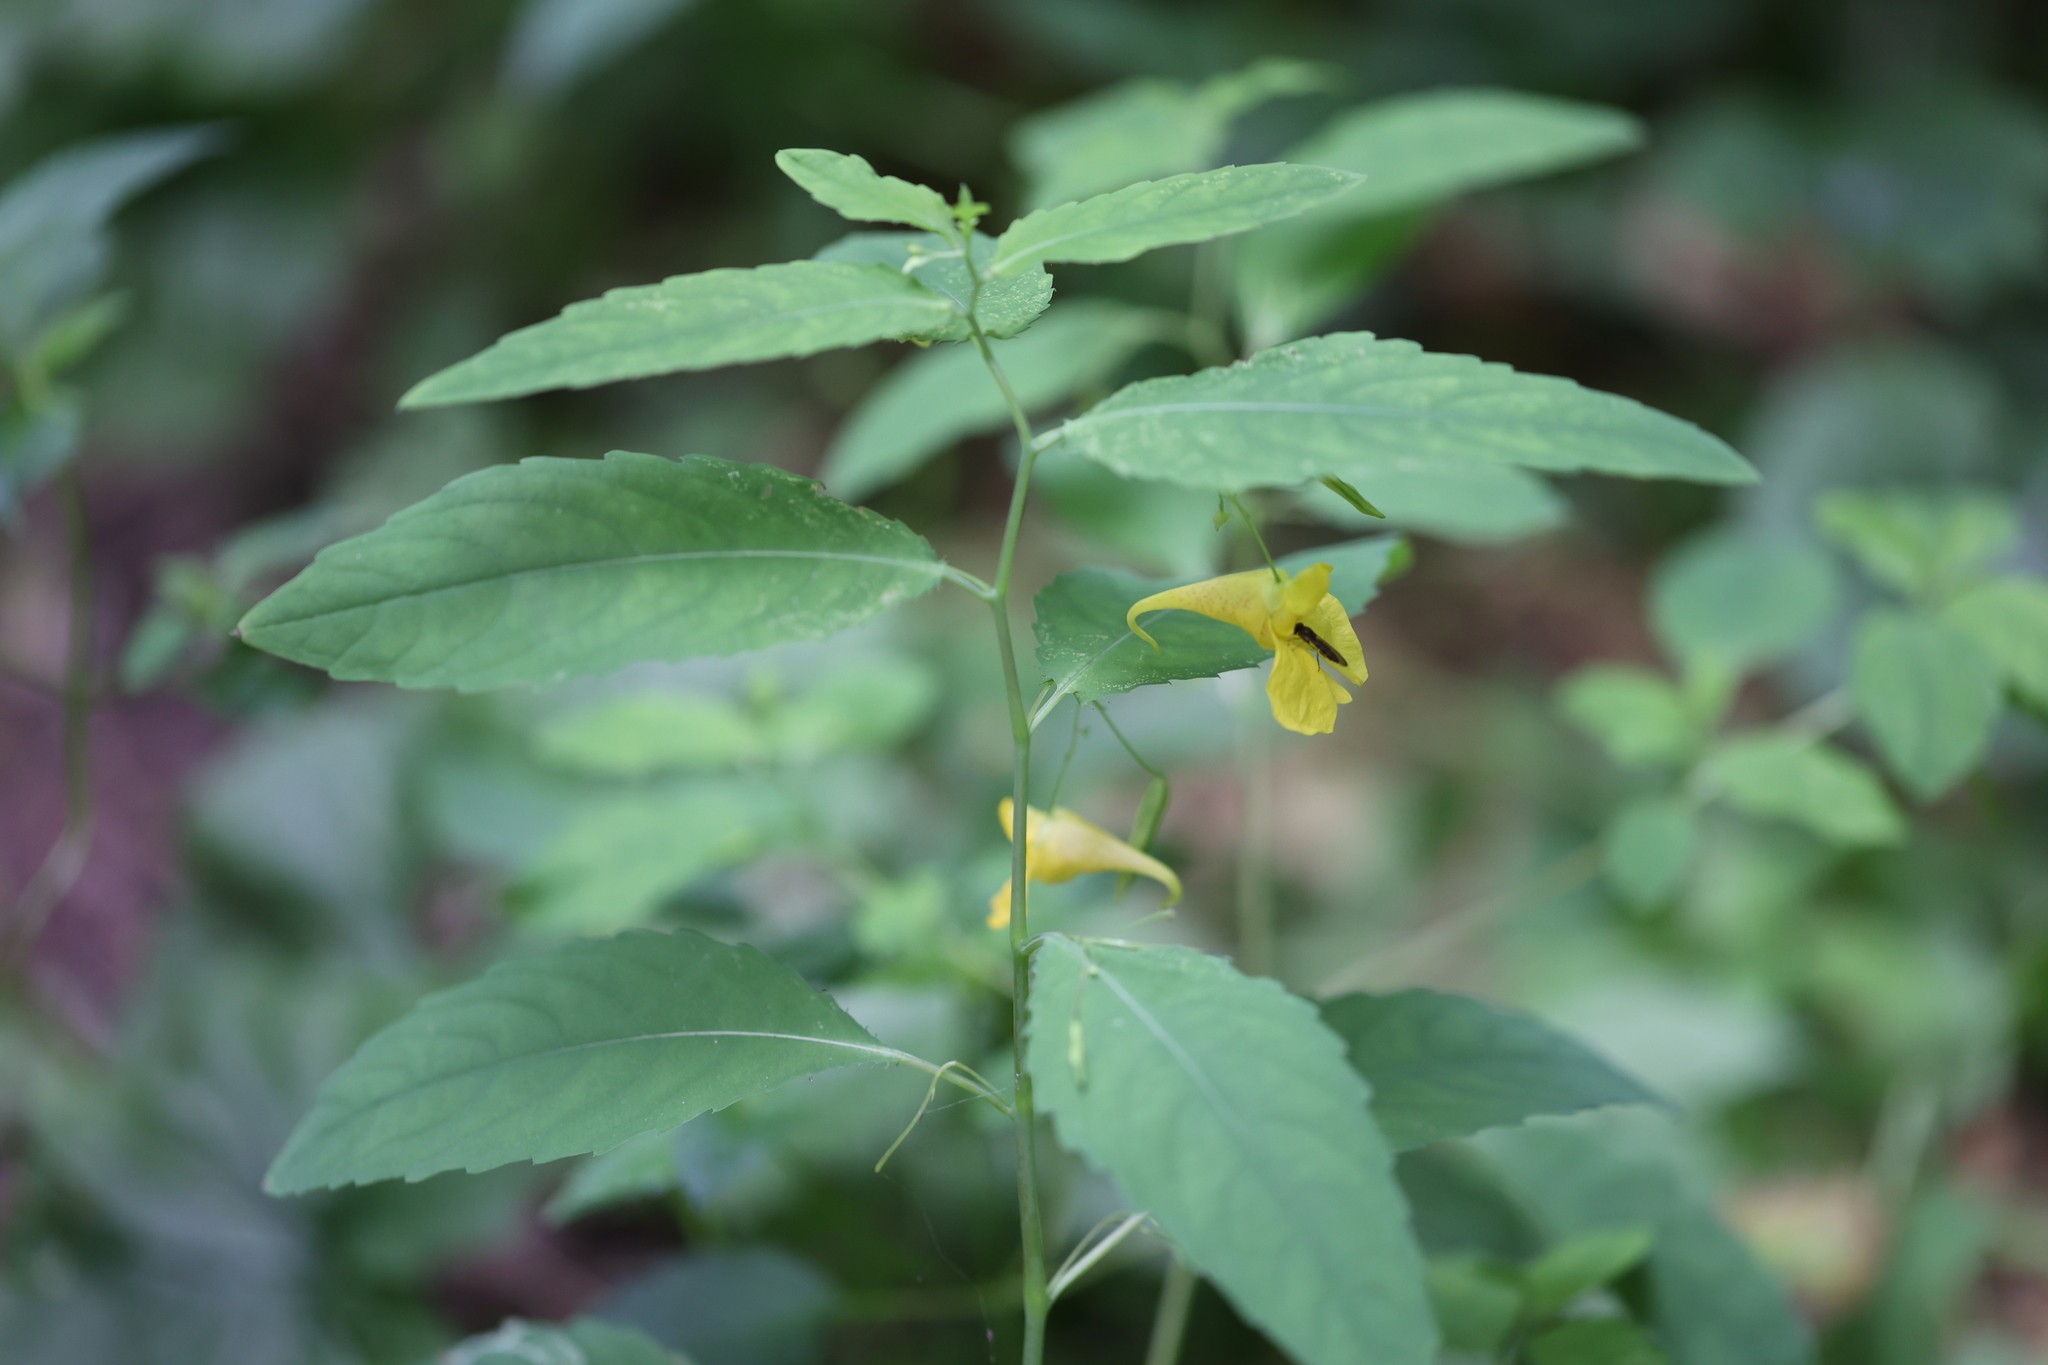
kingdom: Plantae
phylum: Tracheophyta
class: Magnoliopsida
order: Ericales
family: Balsaminaceae
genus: Impatiens
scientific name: Impatiens noli-tangere
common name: Touch-me-not balsam
